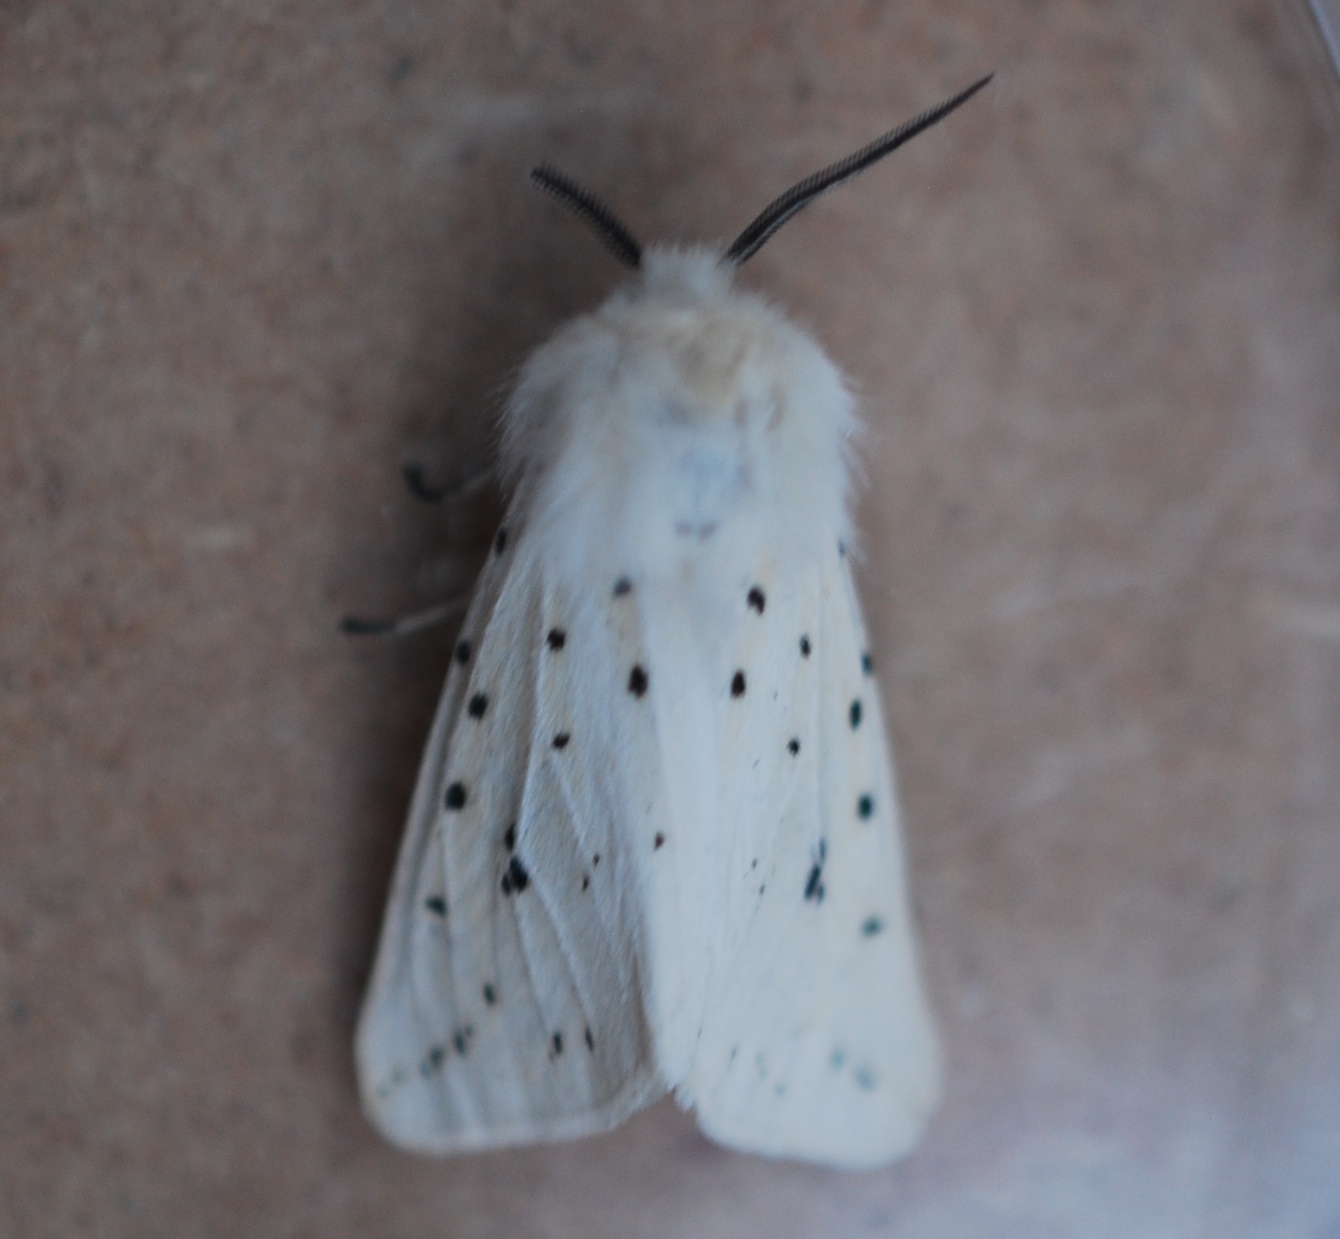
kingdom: Animalia
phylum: Arthropoda
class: Insecta
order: Lepidoptera
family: Erebidae
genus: Spilosoma
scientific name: Spilosoma lubricipeda
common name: White ermine
